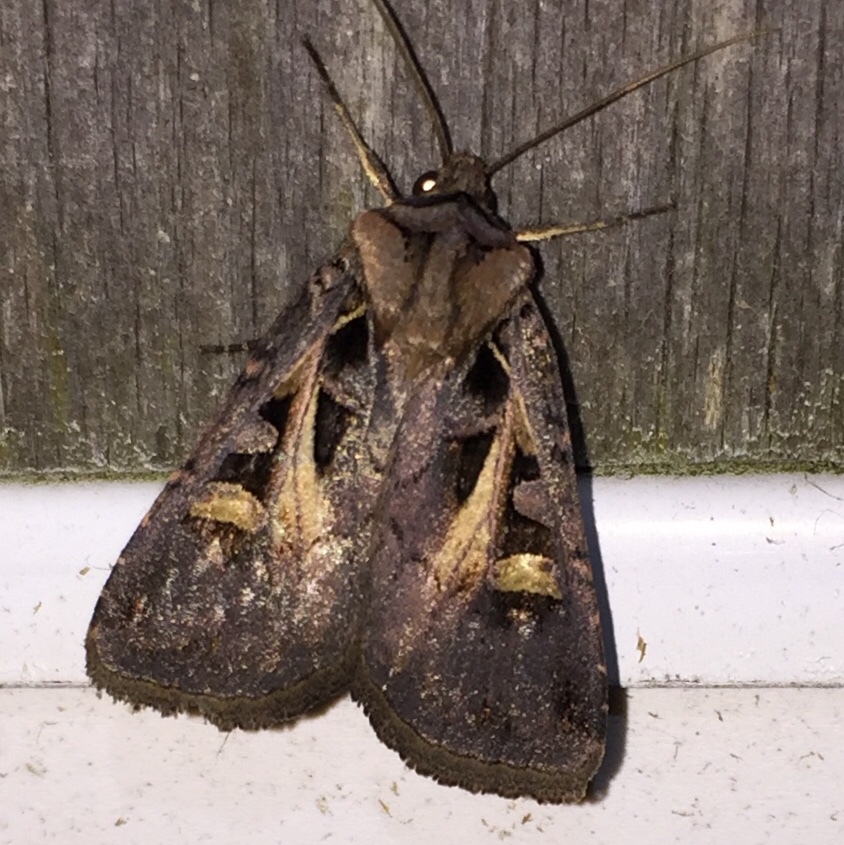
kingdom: Animalia
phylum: Arthropoda
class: Insecta
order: Lepidoptera
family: Noctuidae
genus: Feltia
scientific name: Feltia herilis
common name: Master's dart
